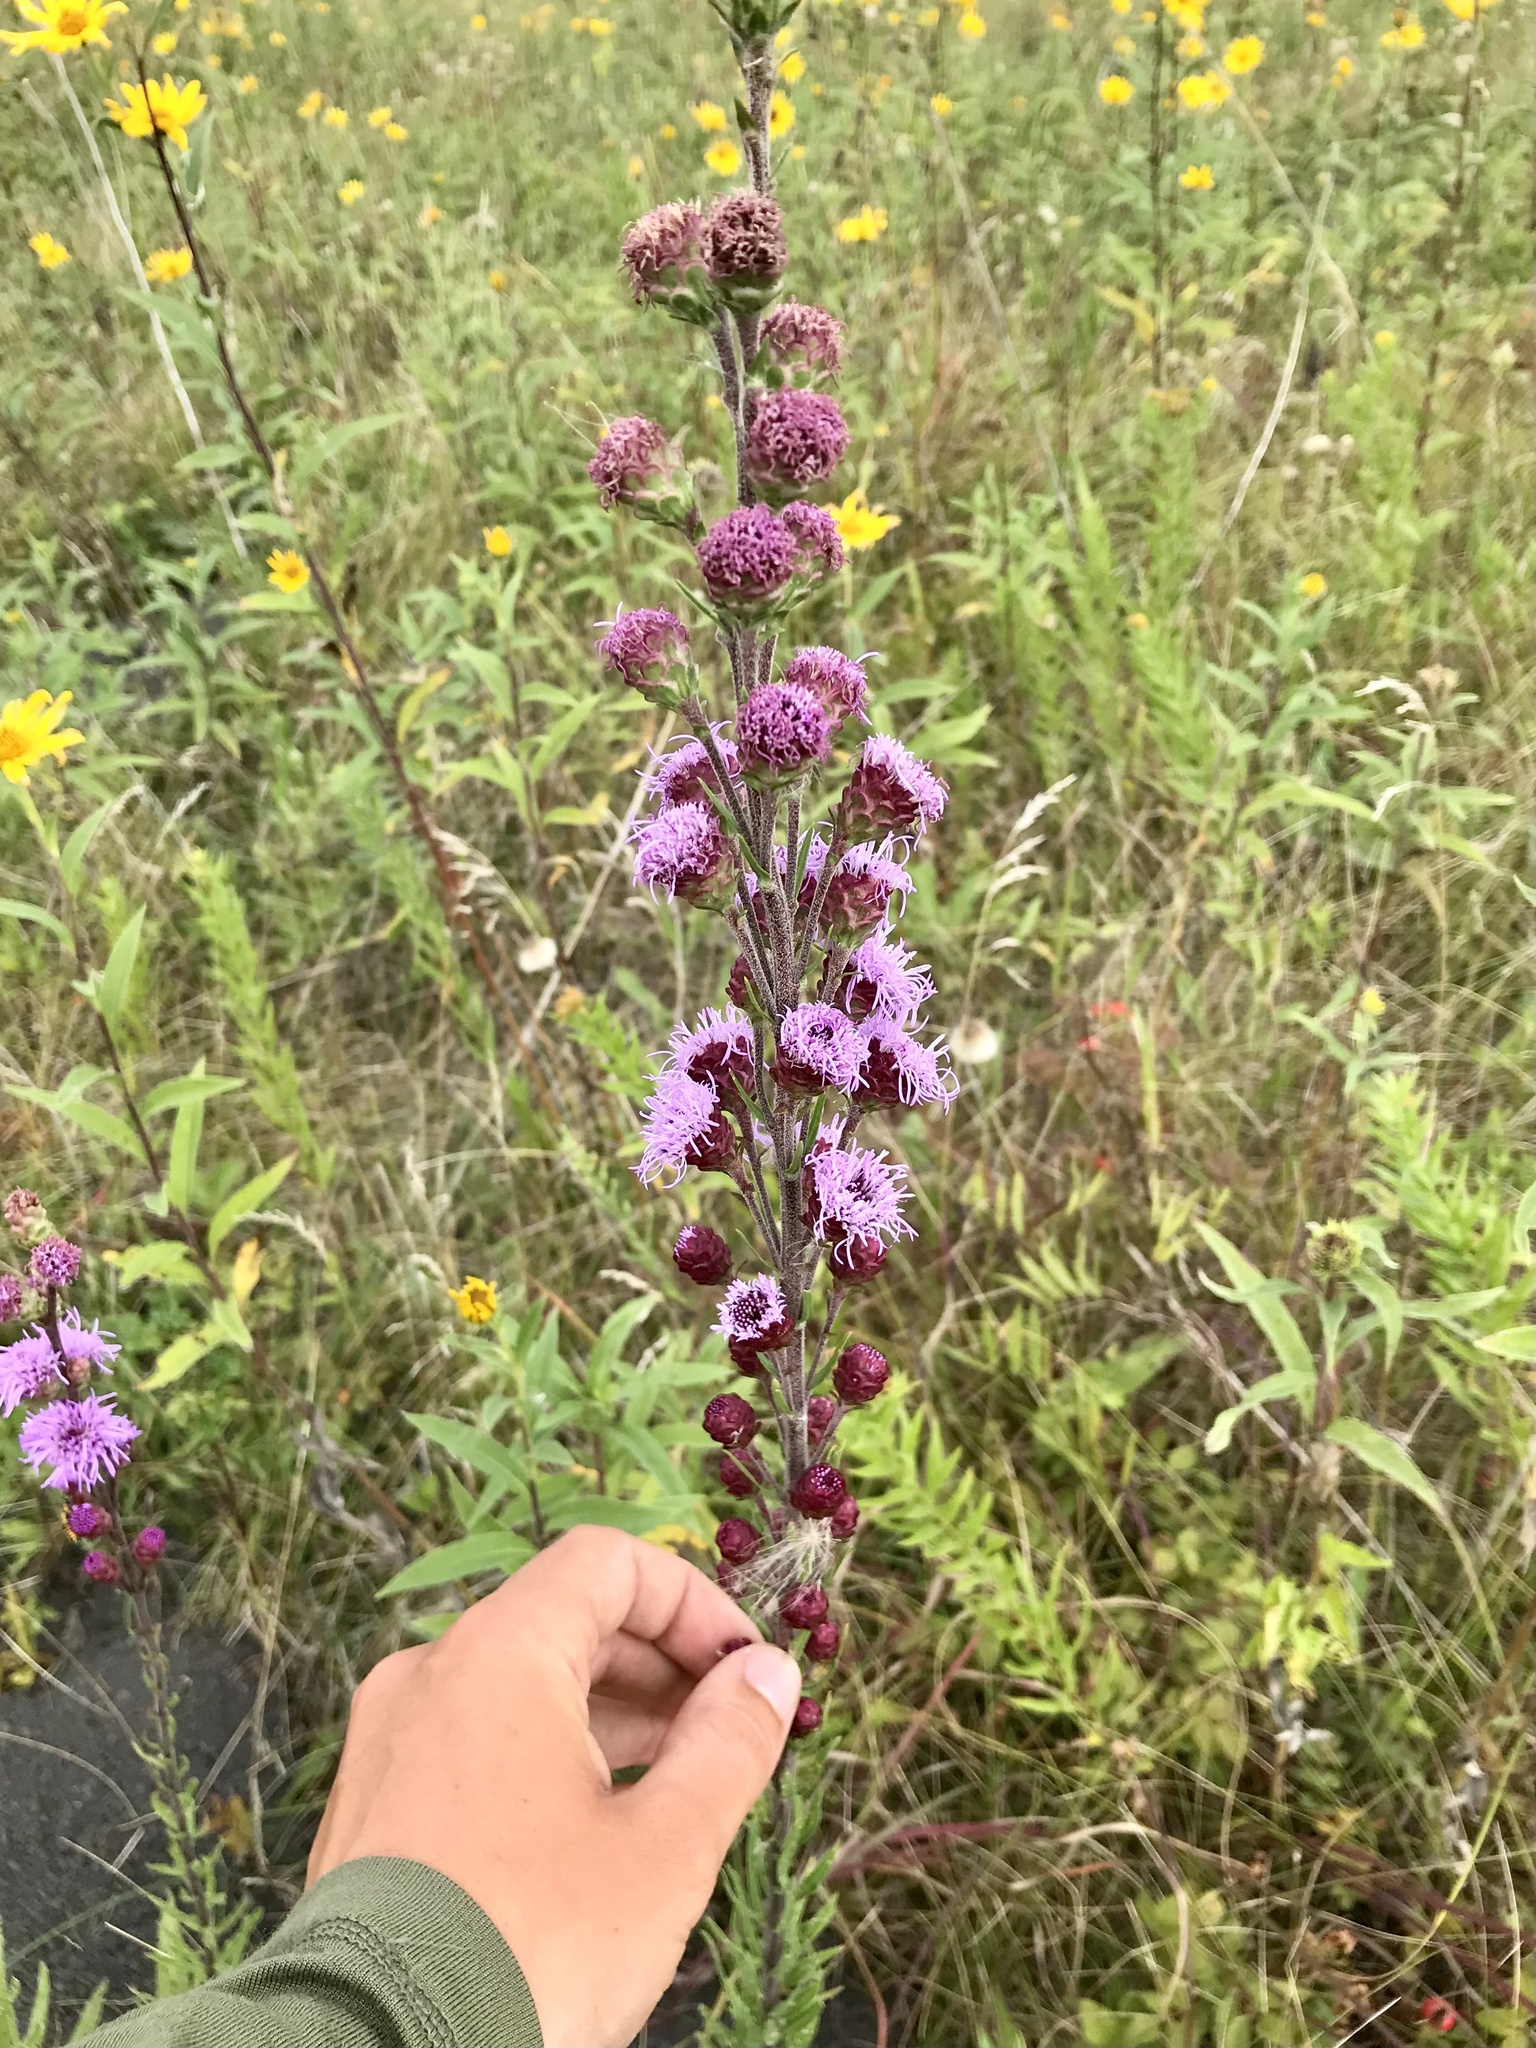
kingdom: Plantae
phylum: Tracheophyta
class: Magnoliopsida
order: Asterales
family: Asteraceae
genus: Liatris
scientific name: Liatris ligulistylis
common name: Northern plains gayfeather
